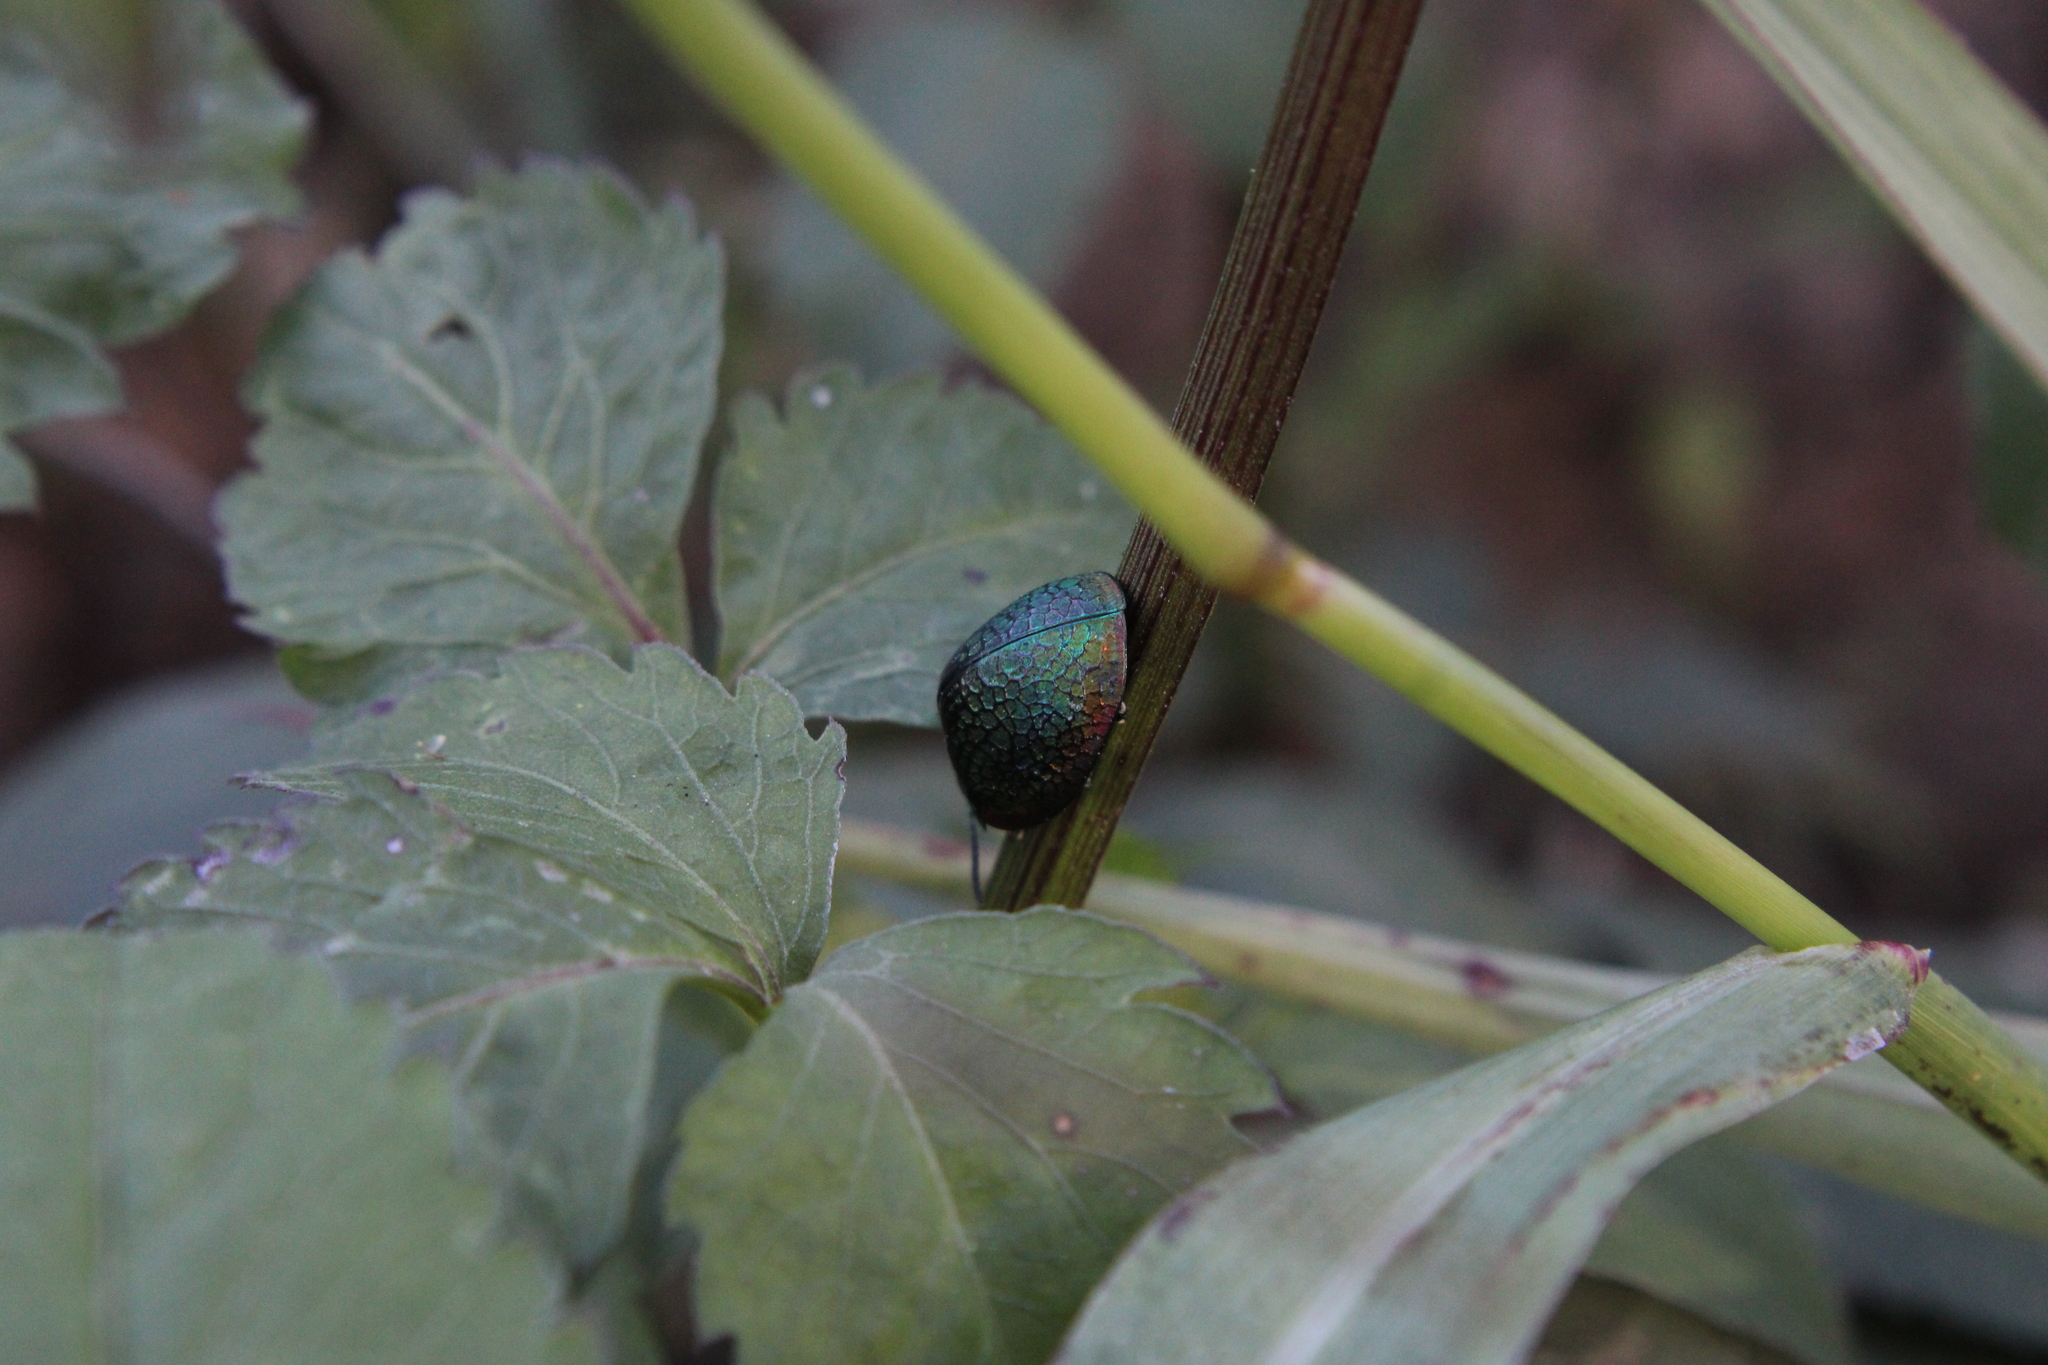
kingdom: Animalia
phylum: Arthropoda
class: Insecta
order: Coleoptera
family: Chrysomelidae
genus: Stolas
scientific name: Stolas festiva
